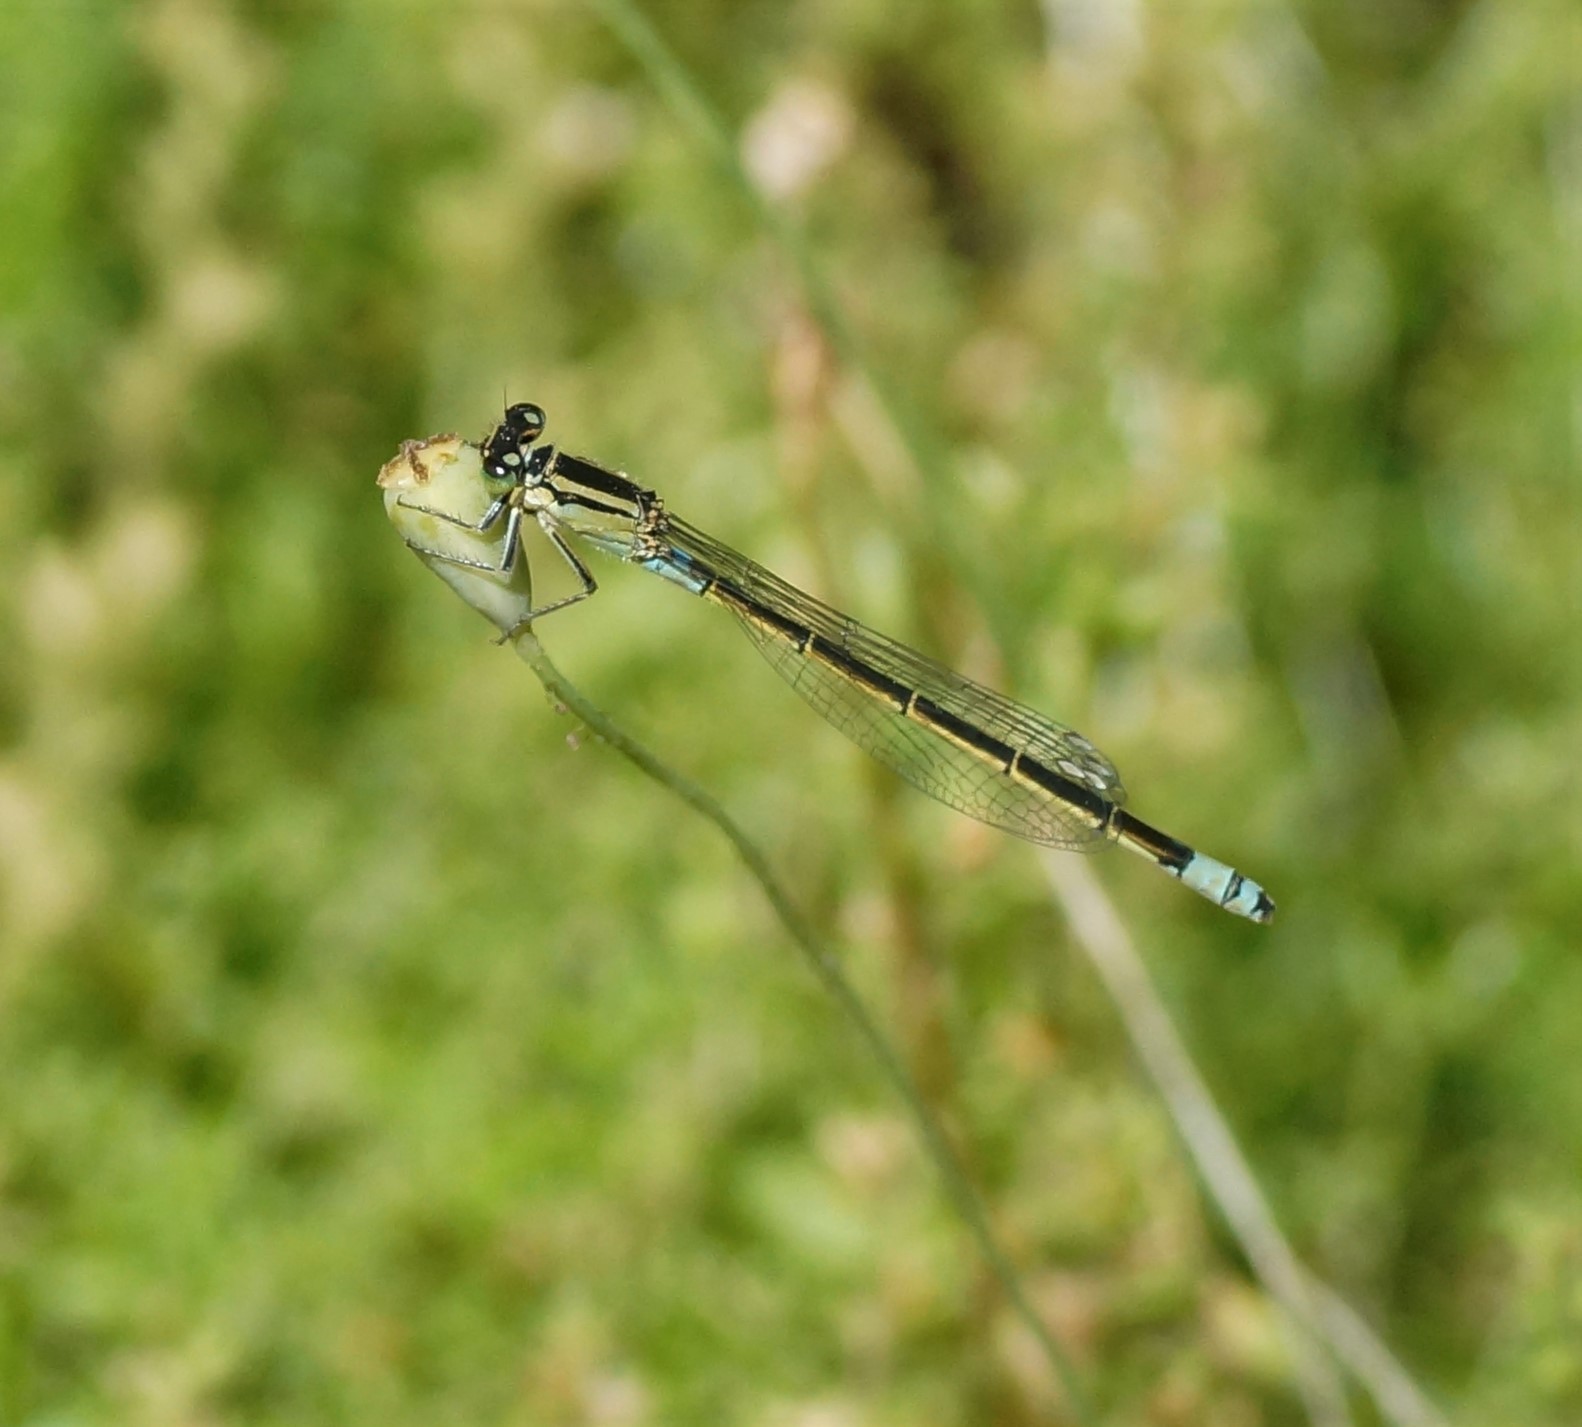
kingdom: Animalia
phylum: Arthropoda
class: Insecta
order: Odonata
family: Coenagrionidae
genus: Ischnura
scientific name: Ischnura heterosticta
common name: Common bluetail
